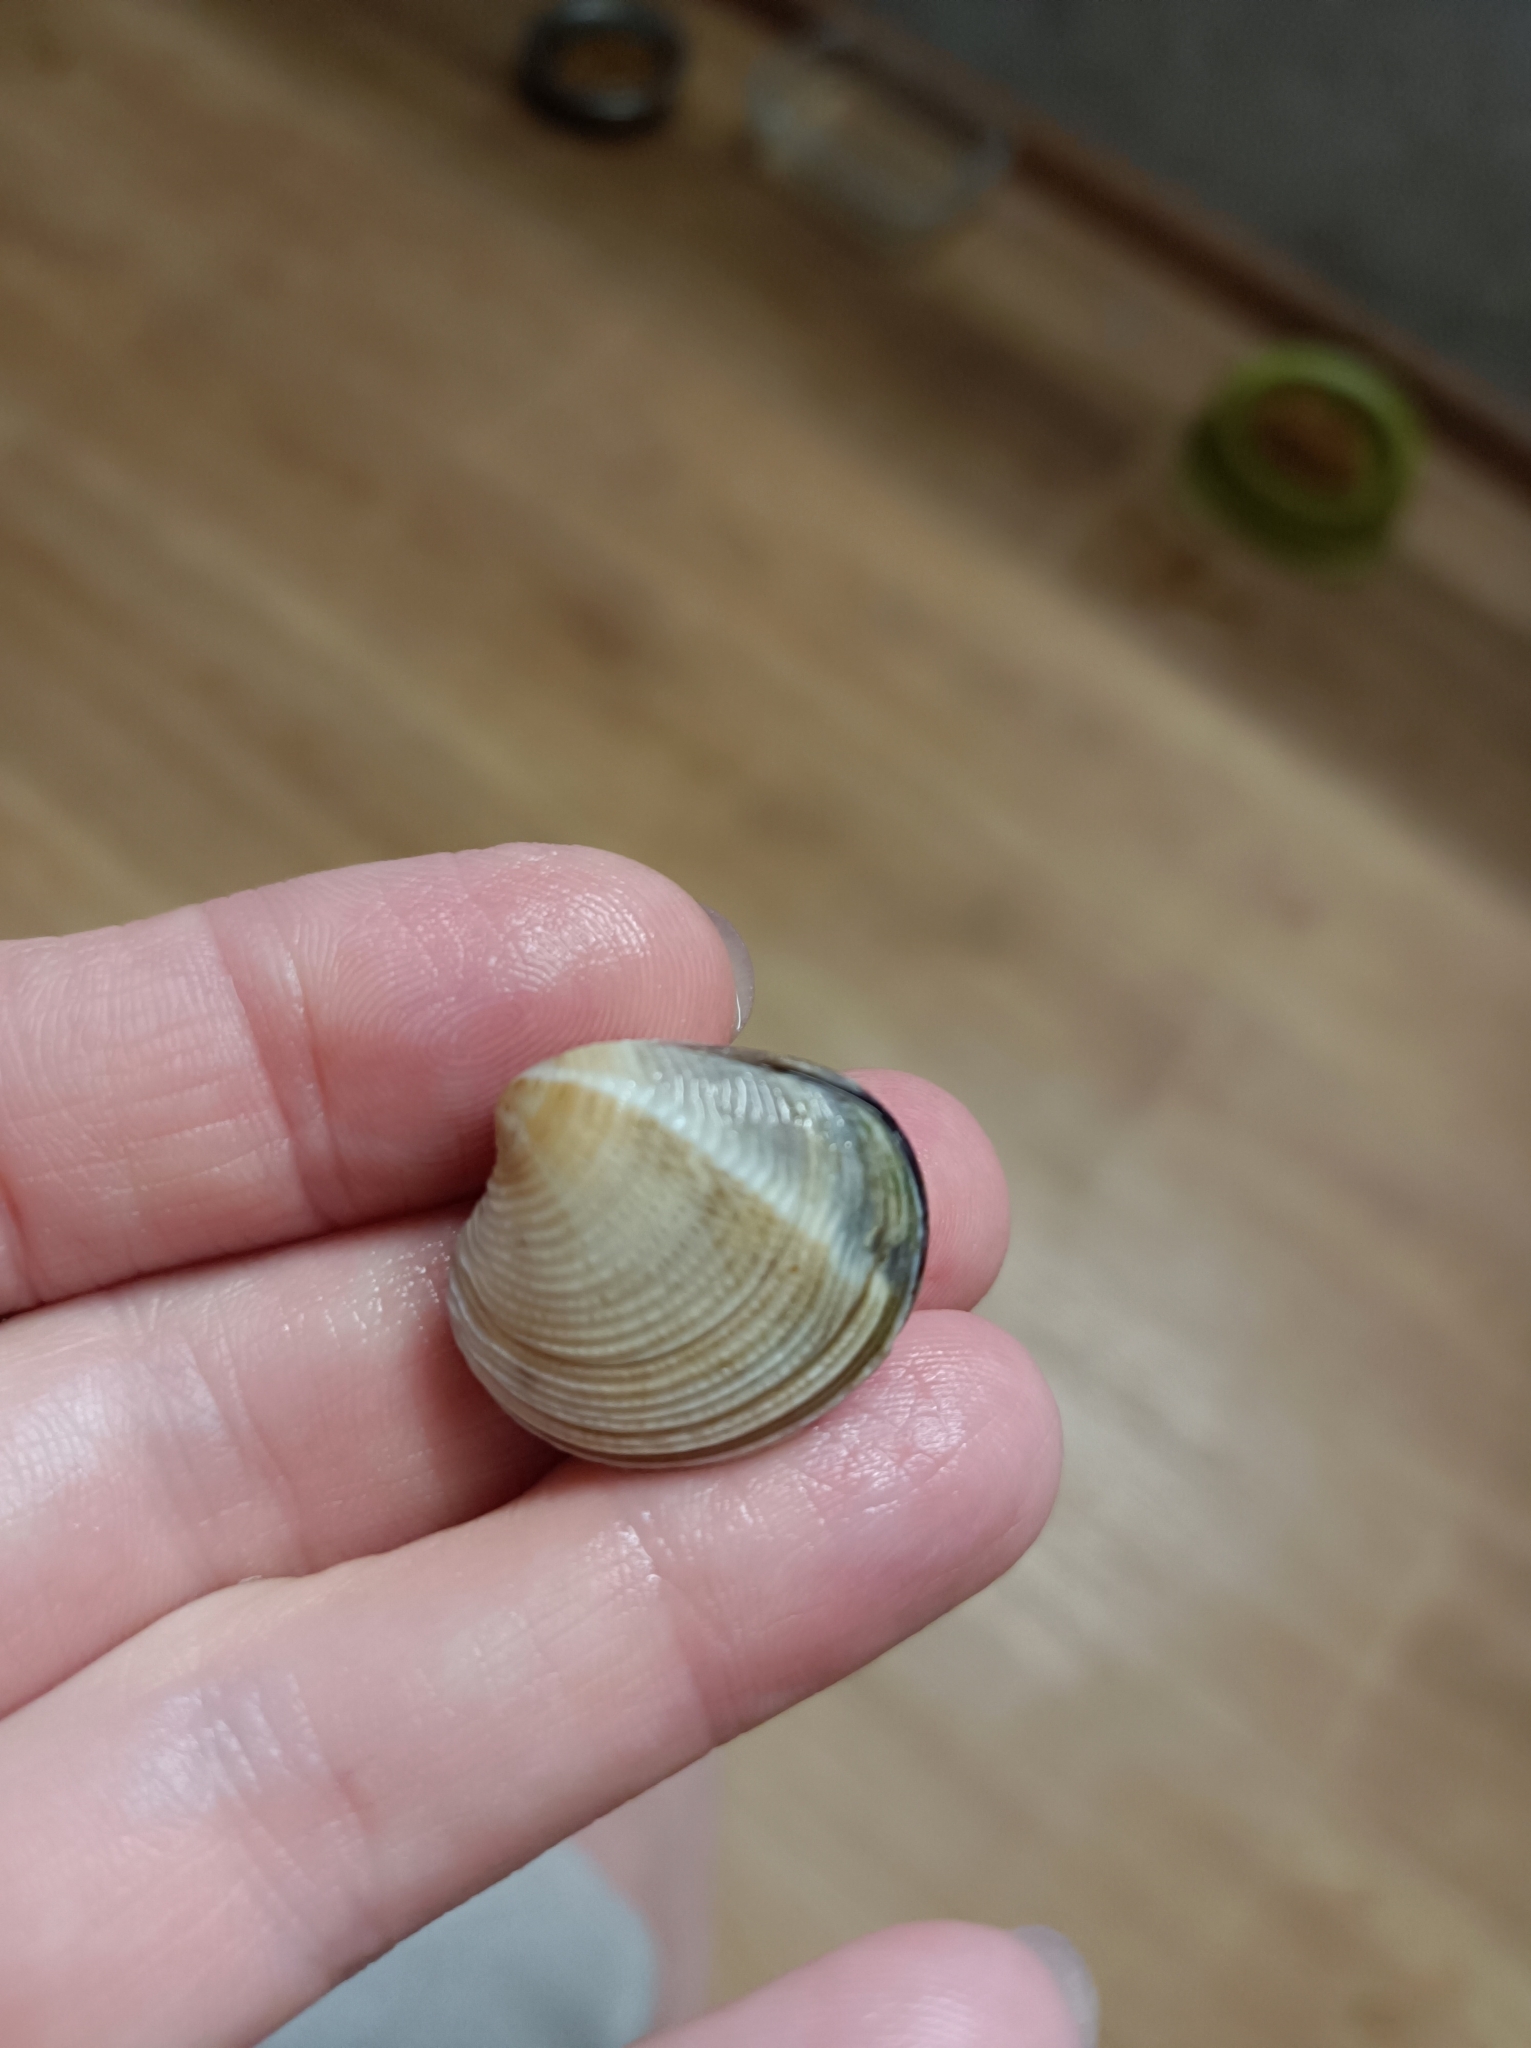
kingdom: Animalia
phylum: Mollusca
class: Bivalvia
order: Venerida
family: Veneridae
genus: Chamelea
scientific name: Chamelea gallina
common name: Chicken venus
